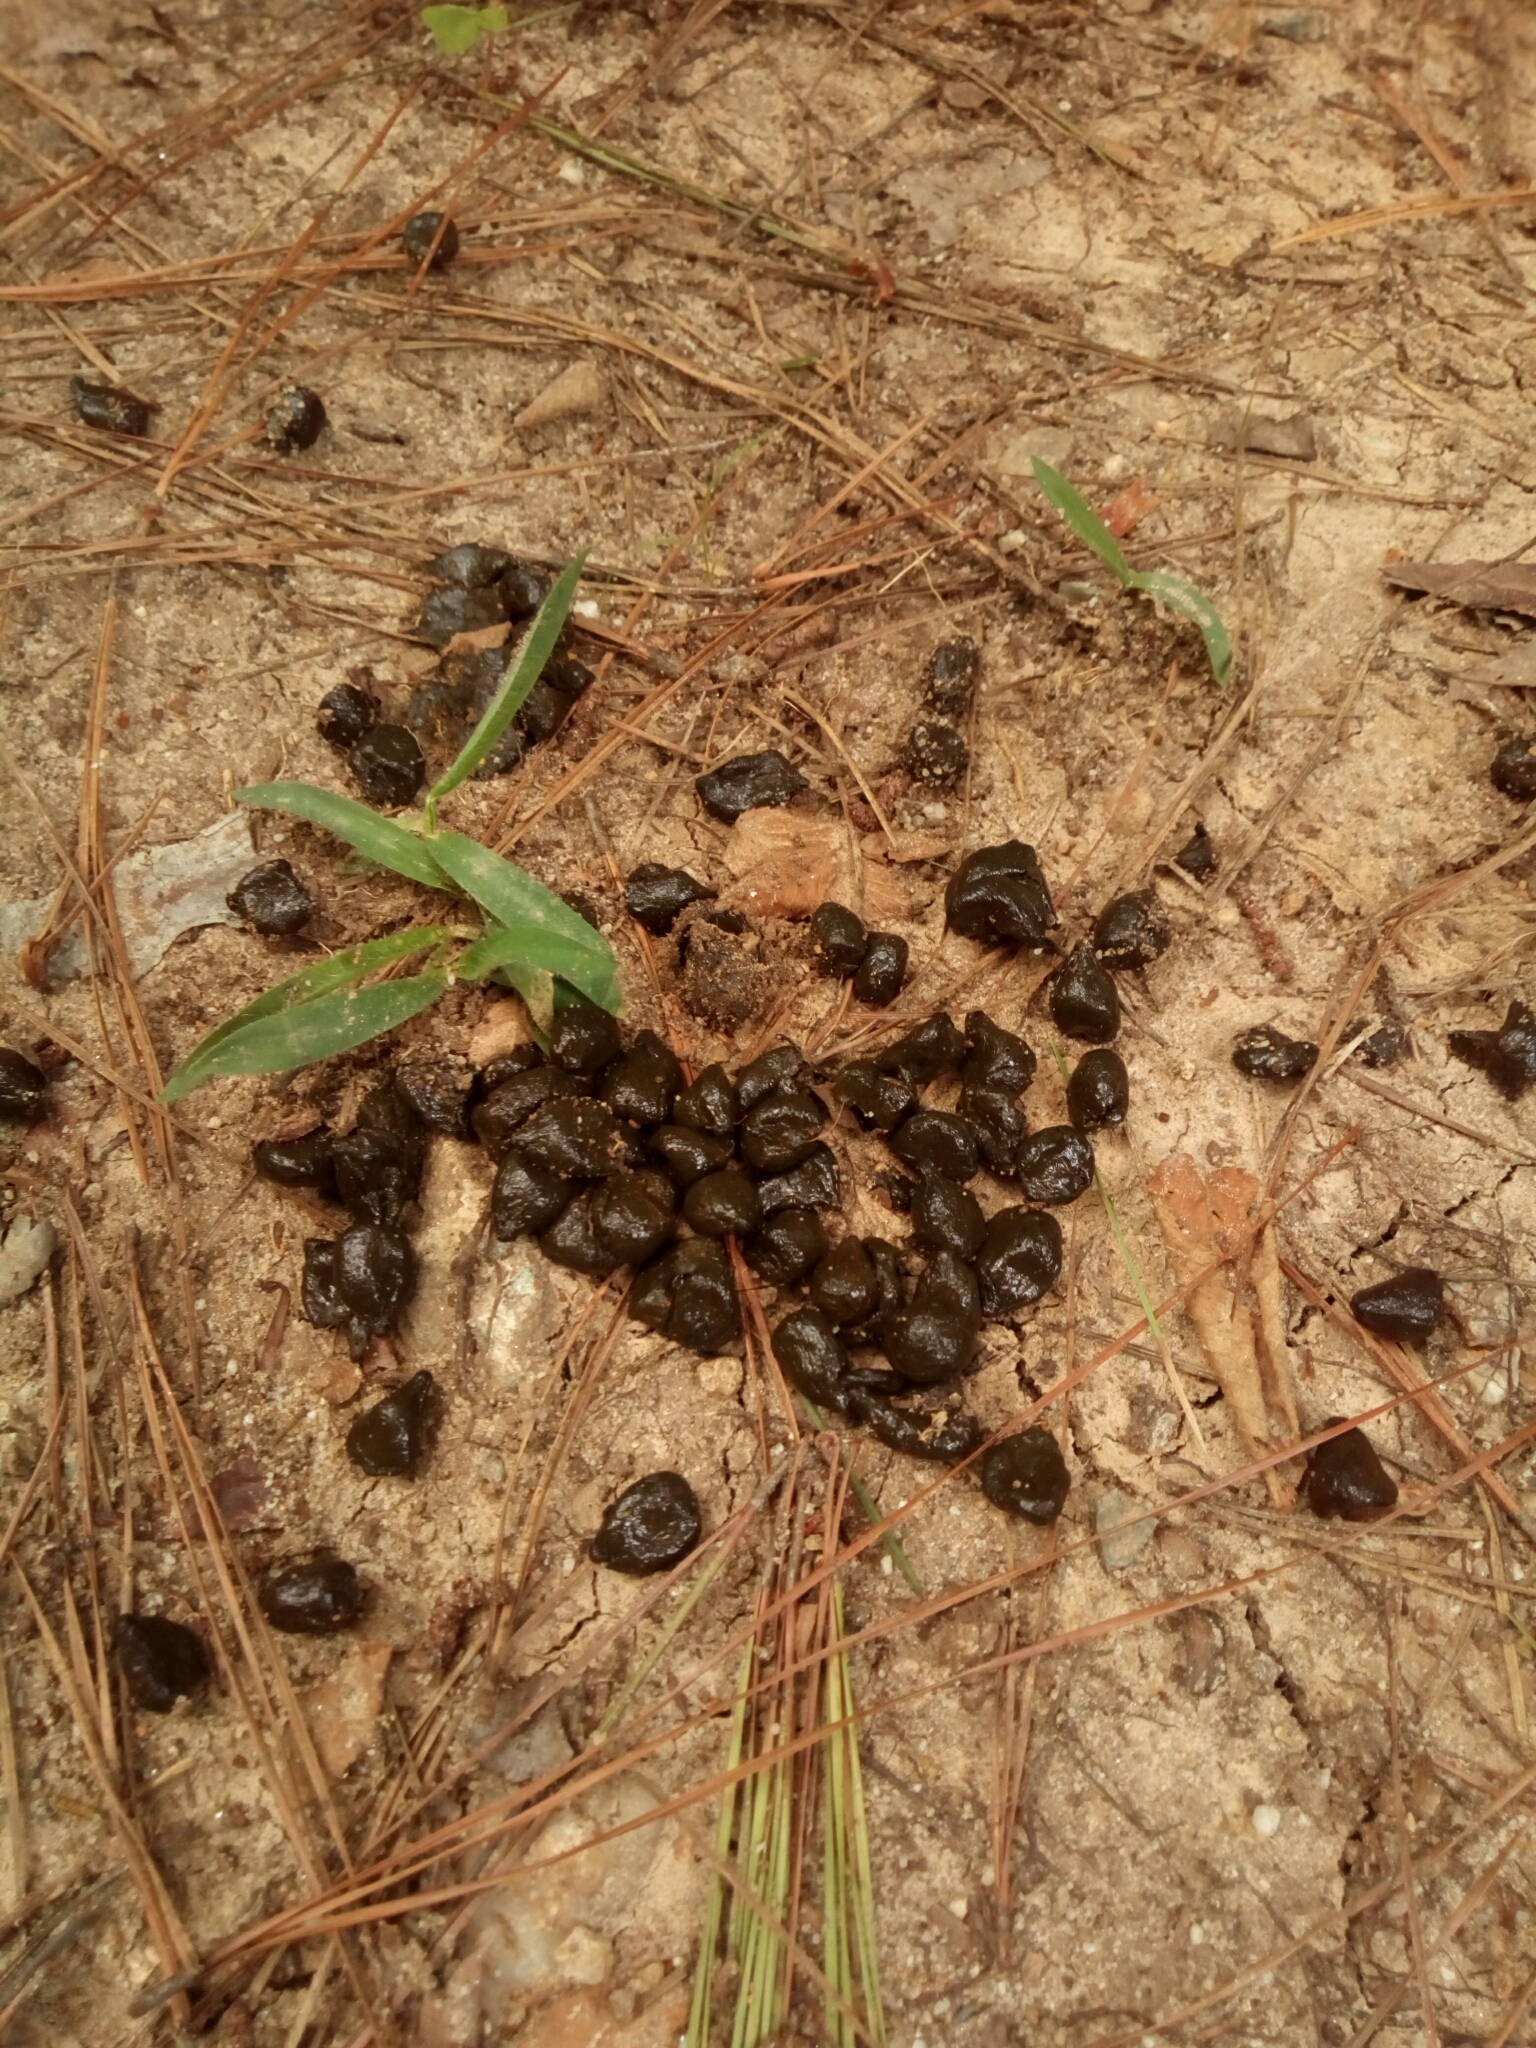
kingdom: Animalia
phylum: Chordata
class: Mammalia
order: Artiodactyla
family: Cervidae
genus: Odocoileus
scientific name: Odocoileus virginianus
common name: White-tailed deer
